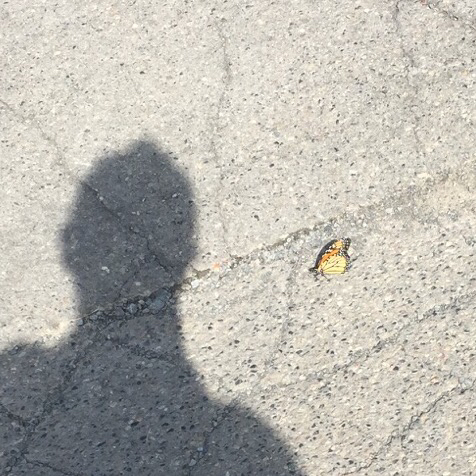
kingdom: Animalia
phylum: Arthropoda
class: Insecta
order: Lepidoptera
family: Nymphalidae
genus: Danaus
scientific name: Danaus plexippus
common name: Monarch
